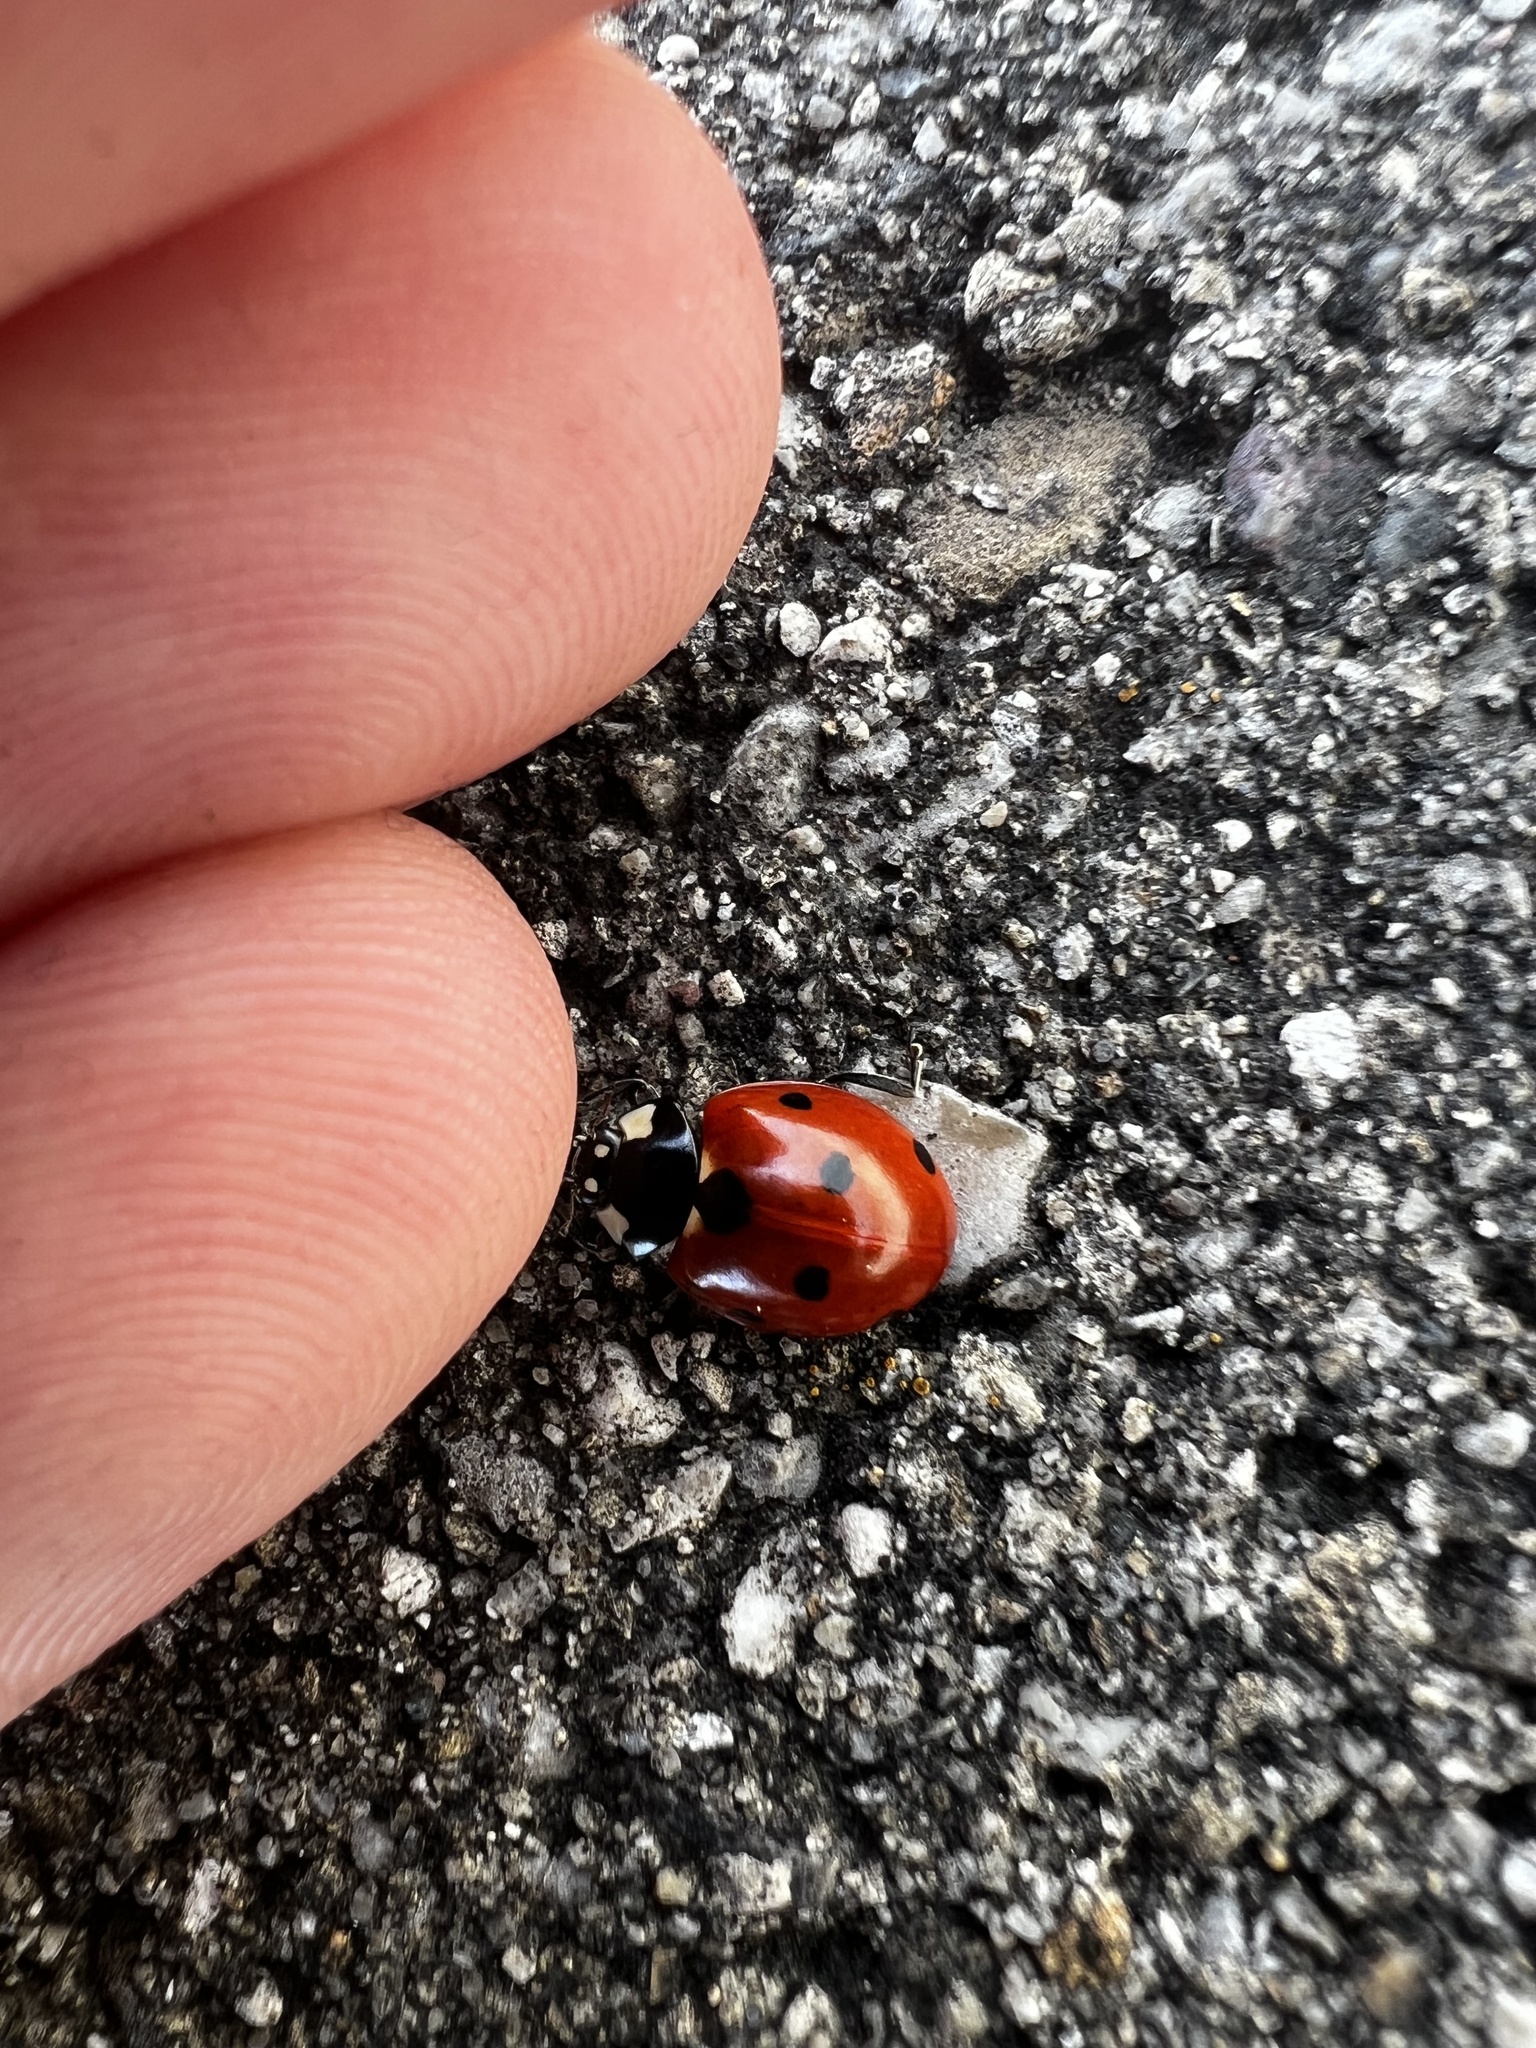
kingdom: Animalia
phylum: Arthropoda
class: Insecta
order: Coleoptera
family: Coccinellidae
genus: Coccinella
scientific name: Coccinella septempunctata
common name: Sevenspotted lady beetle
